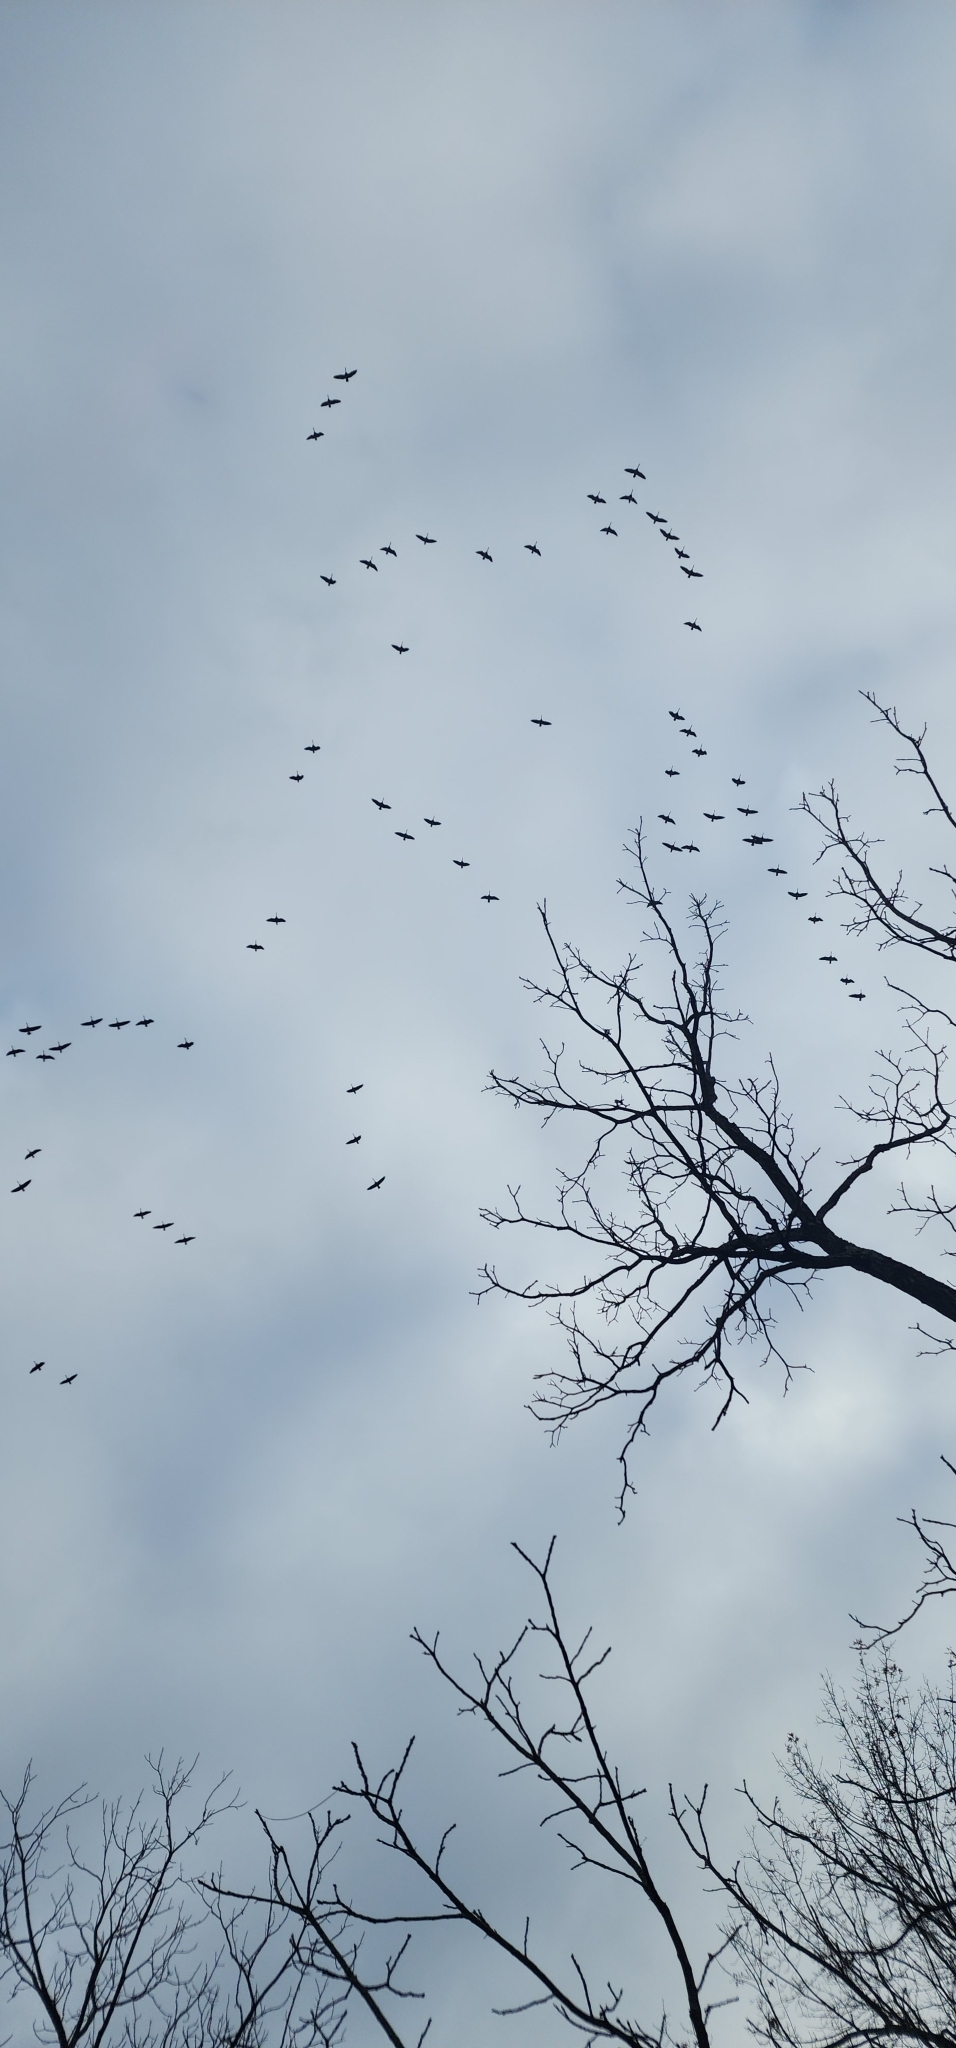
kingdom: Animalia
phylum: Chordata
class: Aves
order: Anseriformes
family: Anatidae
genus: Branta
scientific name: Branta canadensis
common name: Canada goose
